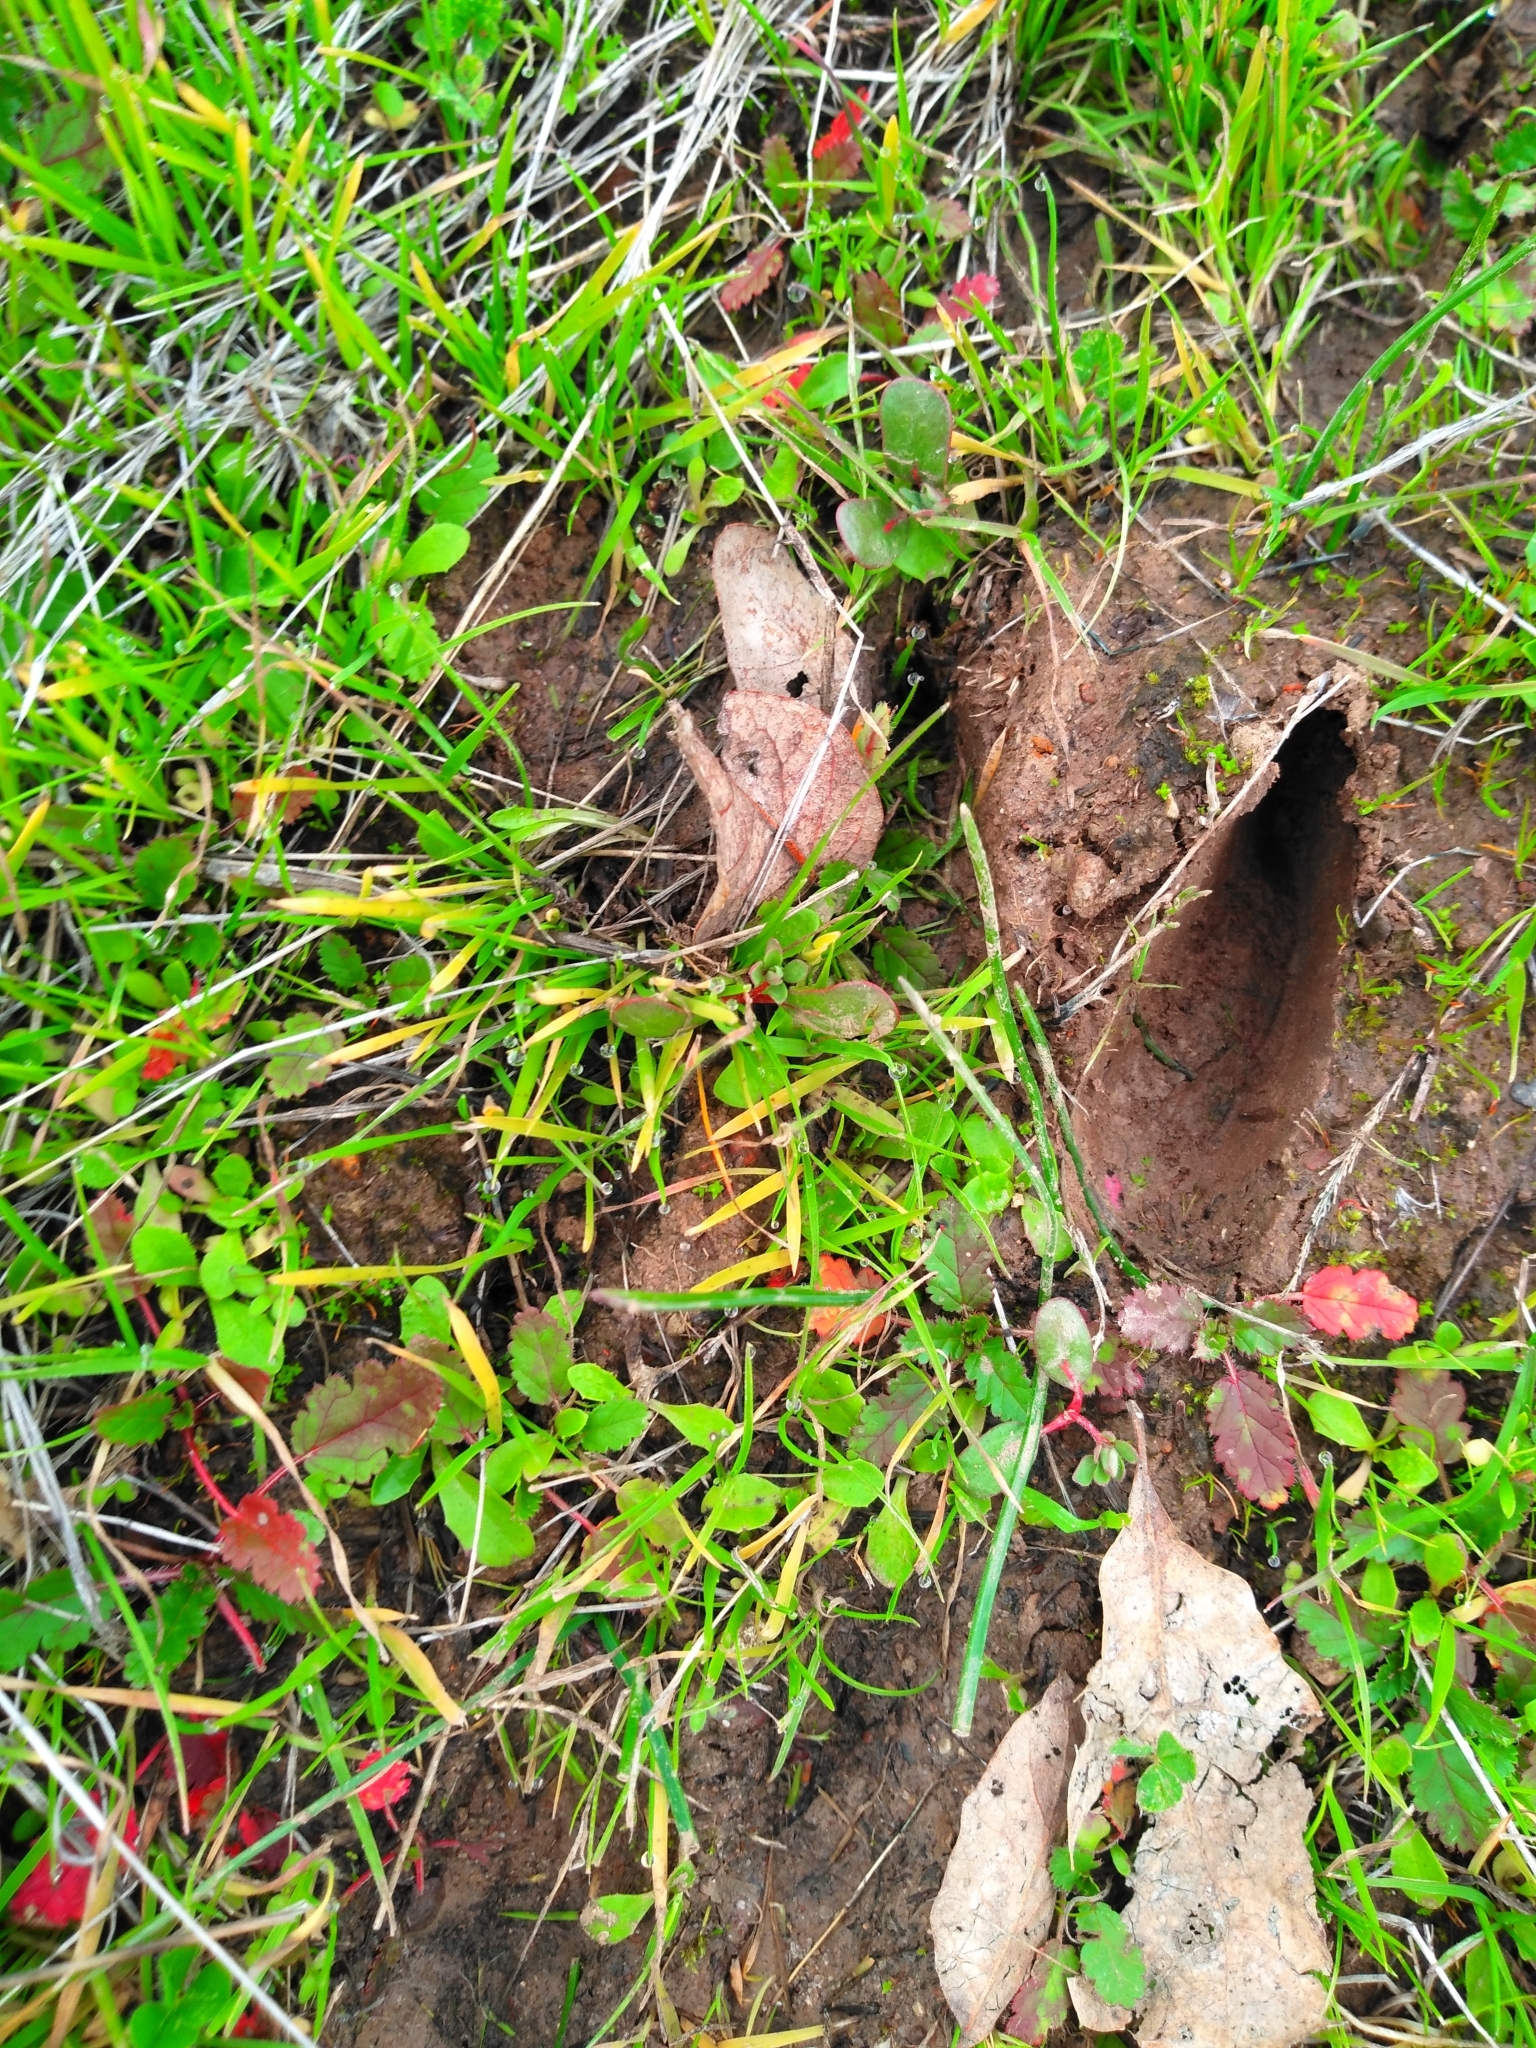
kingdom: Animalia
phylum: Chordata
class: Mammalia
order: Artiodactyla
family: Cervidae
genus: Odocoileus
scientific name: Odocoileus hemionus
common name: Mule deer
